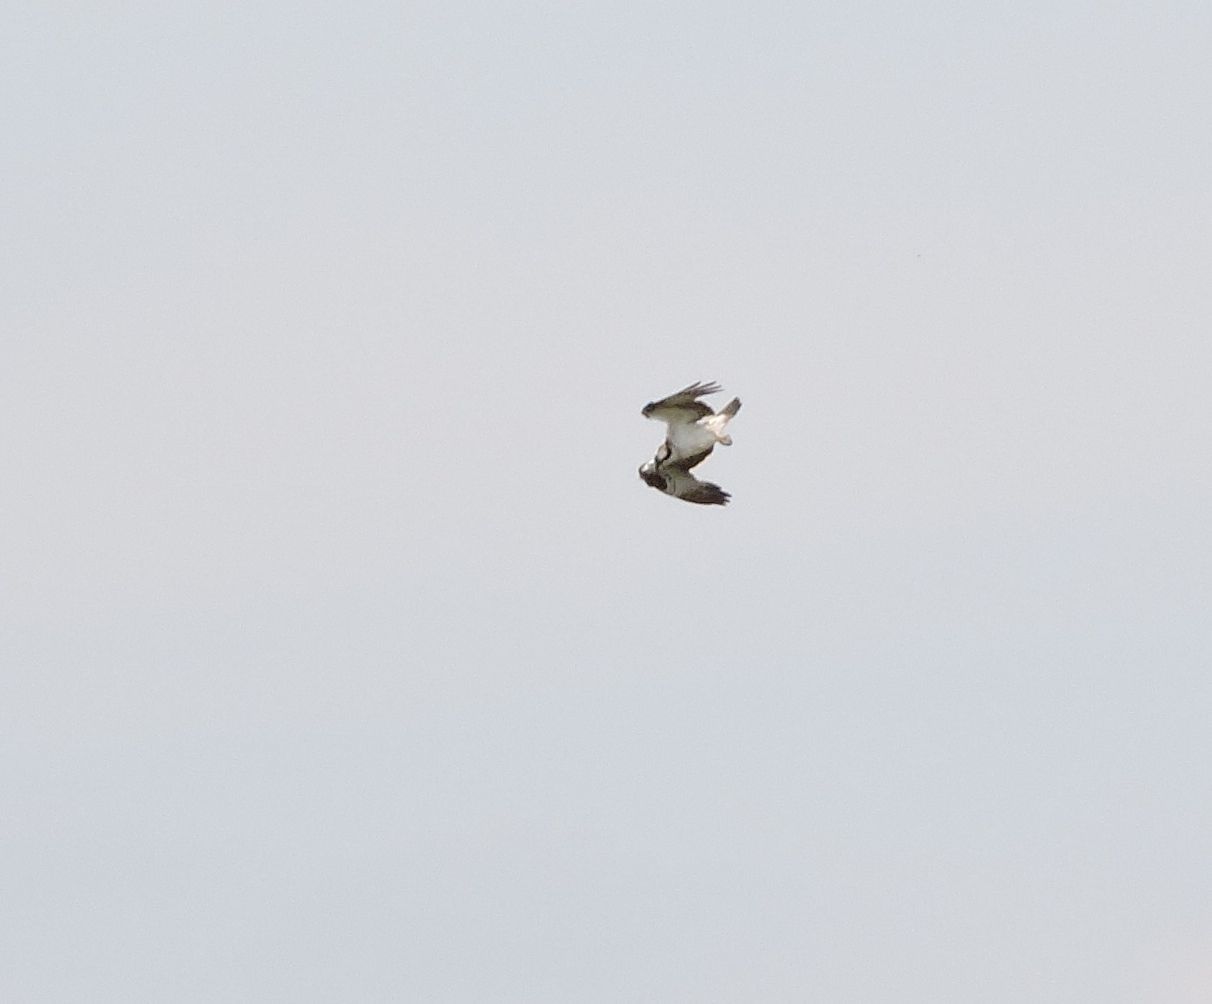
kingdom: Animalia
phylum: Chordata
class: Aves
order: Accipitriformes
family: Pandionidae
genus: Pandion
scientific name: Pandion haliaetus
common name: Osprey
